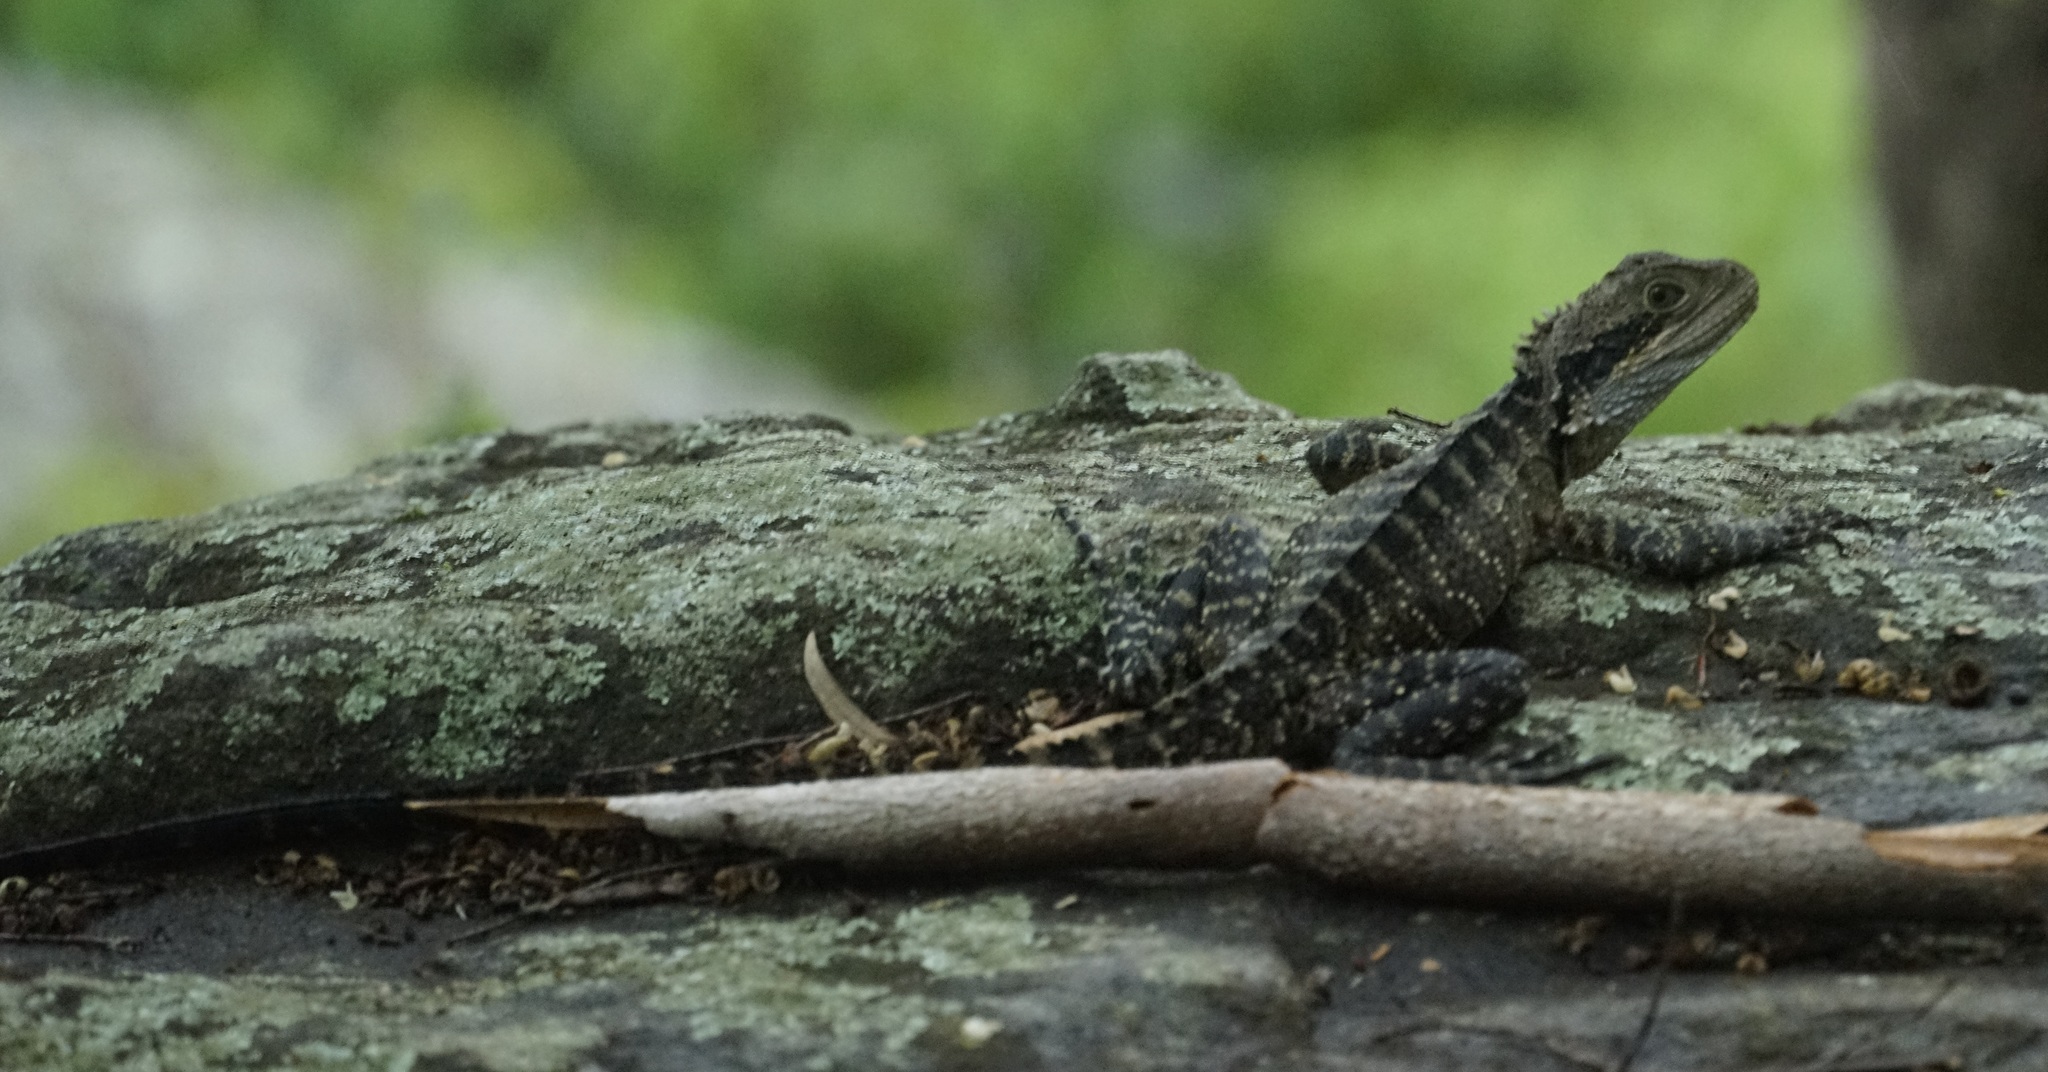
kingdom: Animalia
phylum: Chordata
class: Squamata
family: Agamidae
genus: Intellagama
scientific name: Intellagama lesueurii
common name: Eastern water dragon
